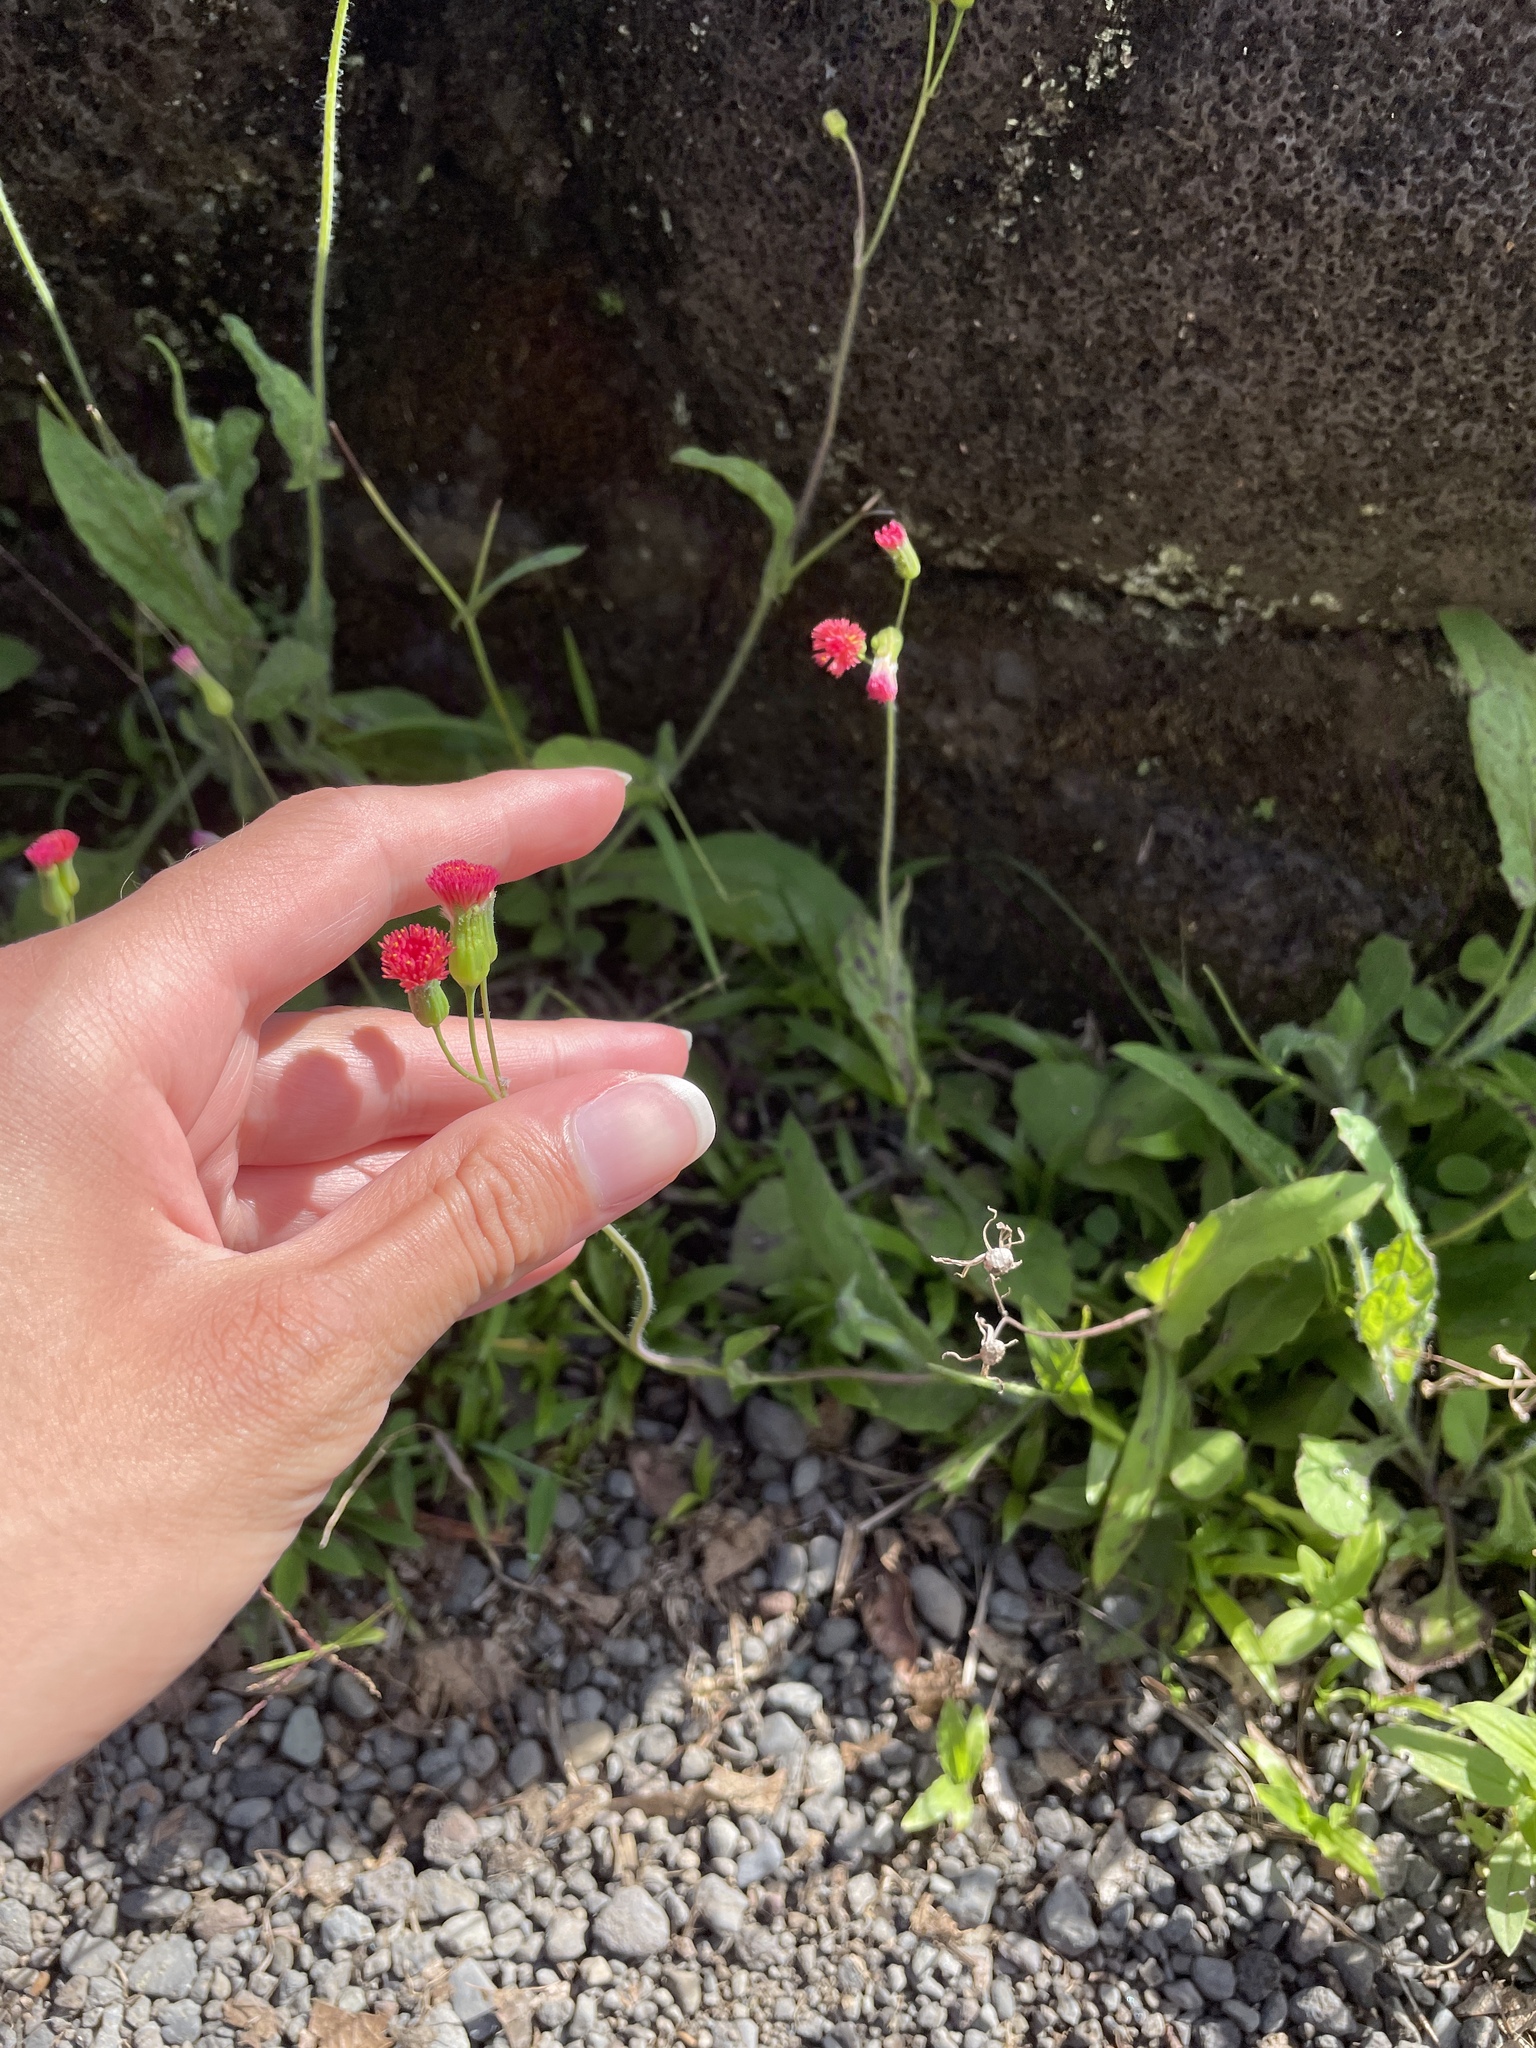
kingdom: Plantae
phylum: Tracheophyta
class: Magnoliopsida
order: Asterales
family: Asteraceae
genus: Emilia
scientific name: Emilia fosbergii
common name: Florida tasselflower
